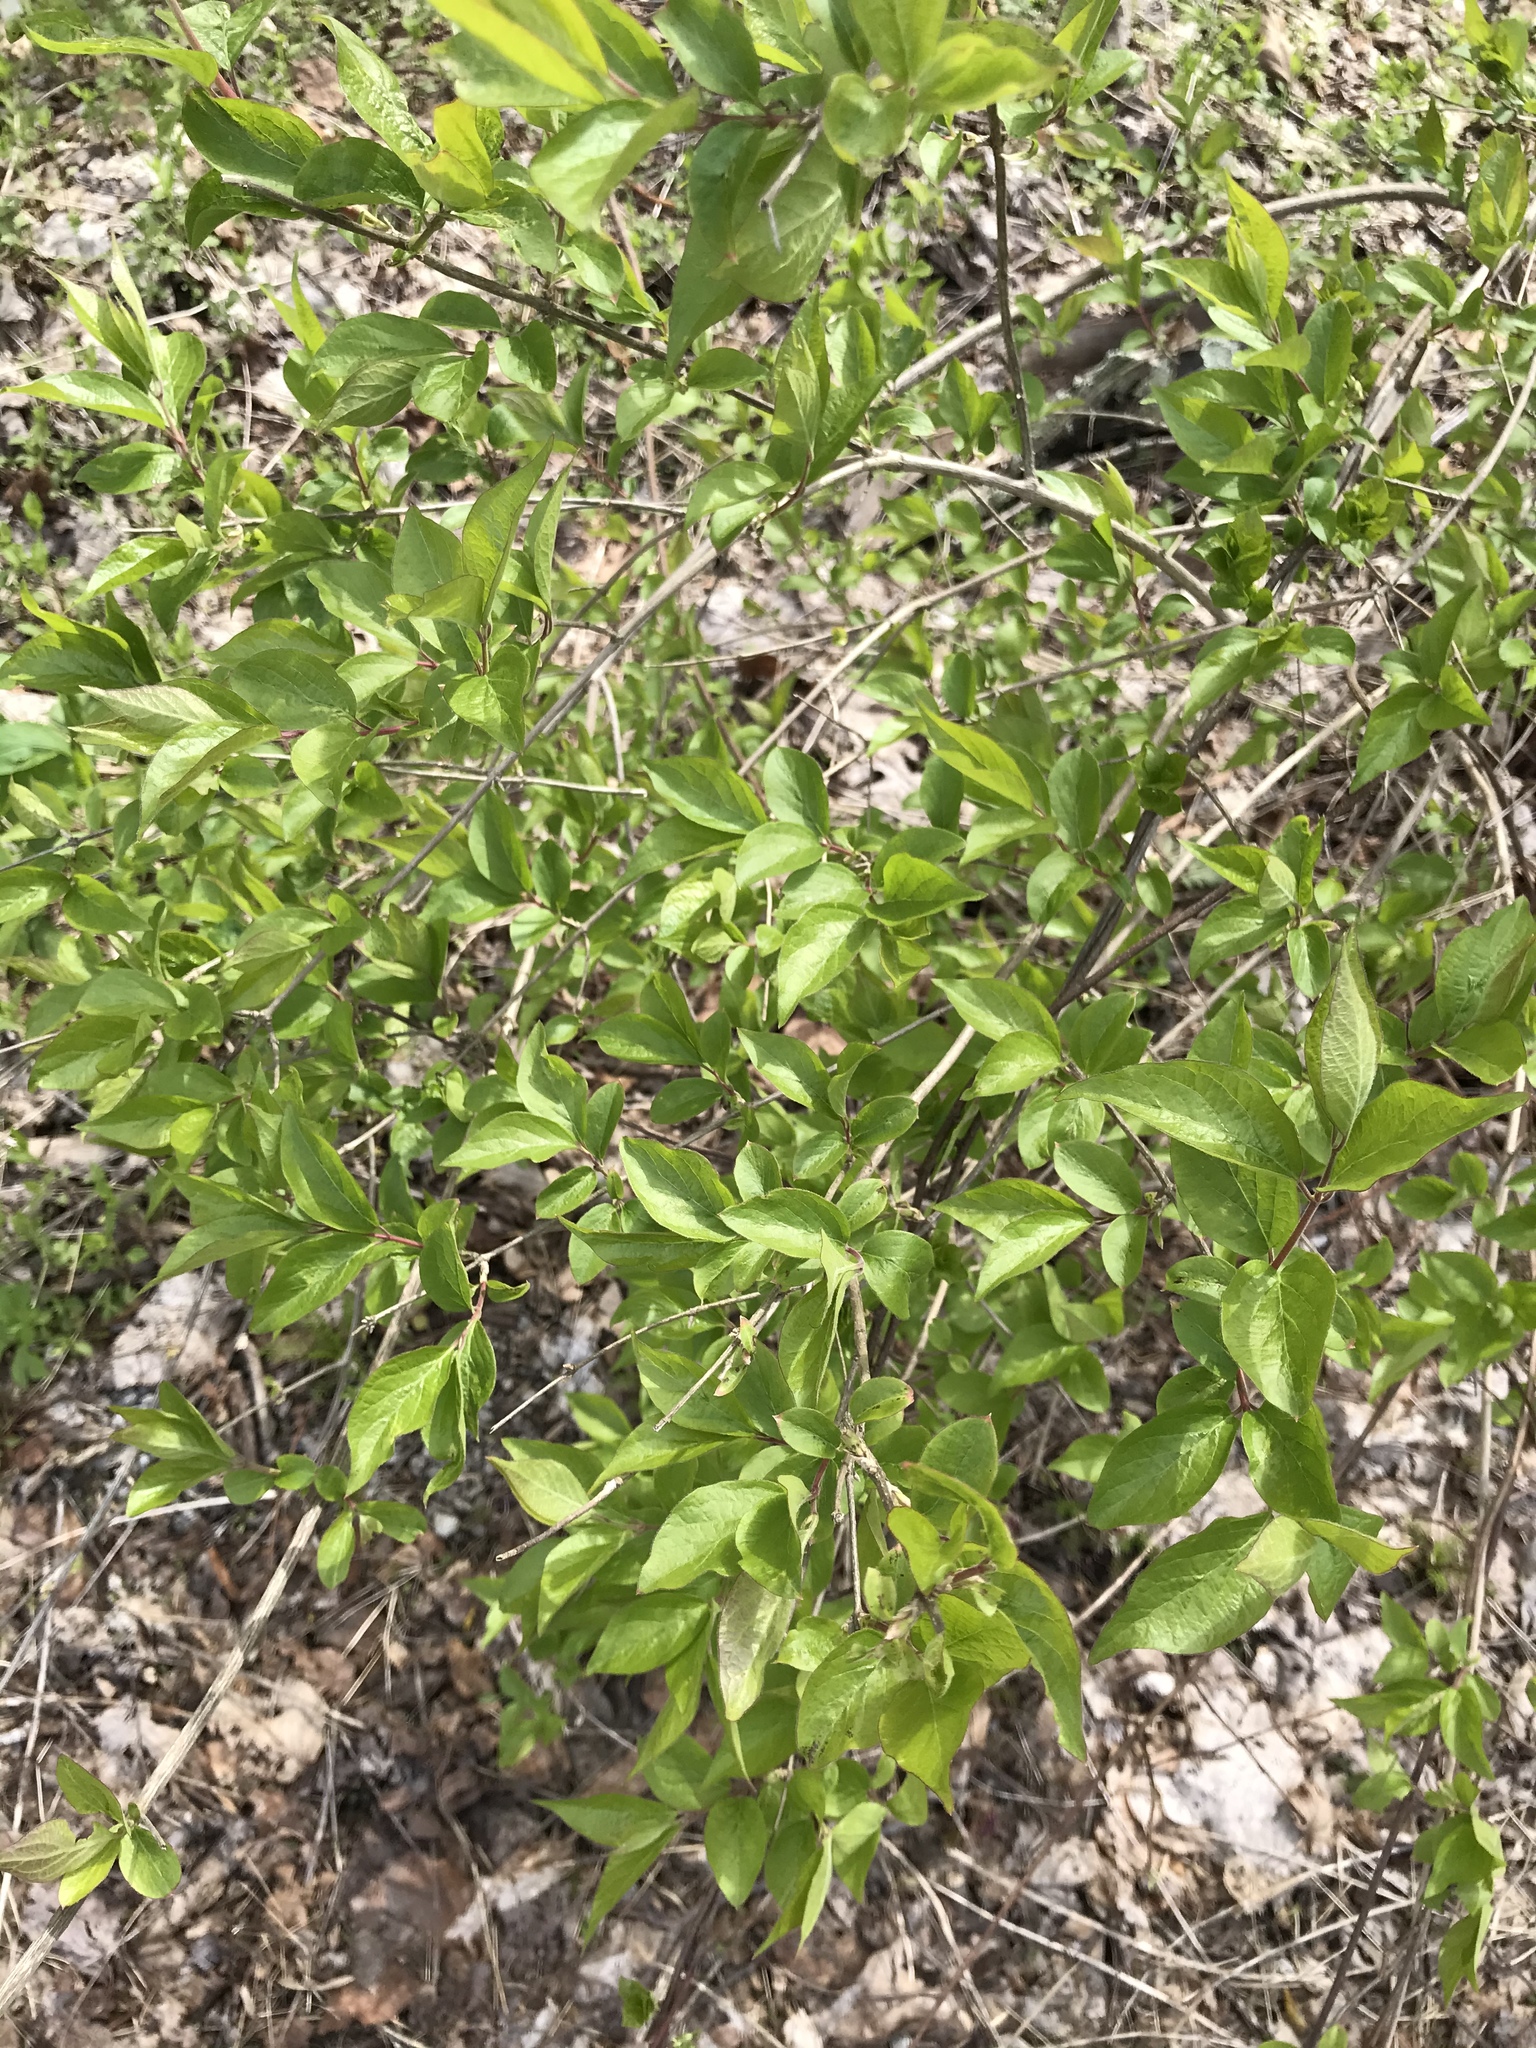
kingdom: Plantae
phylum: Tracheophyta
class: Magnoliopsida
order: Dipsacales
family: Caprifoliaceae
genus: Lonicera
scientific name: Lonicera maackii
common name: Amur honeysuckle
